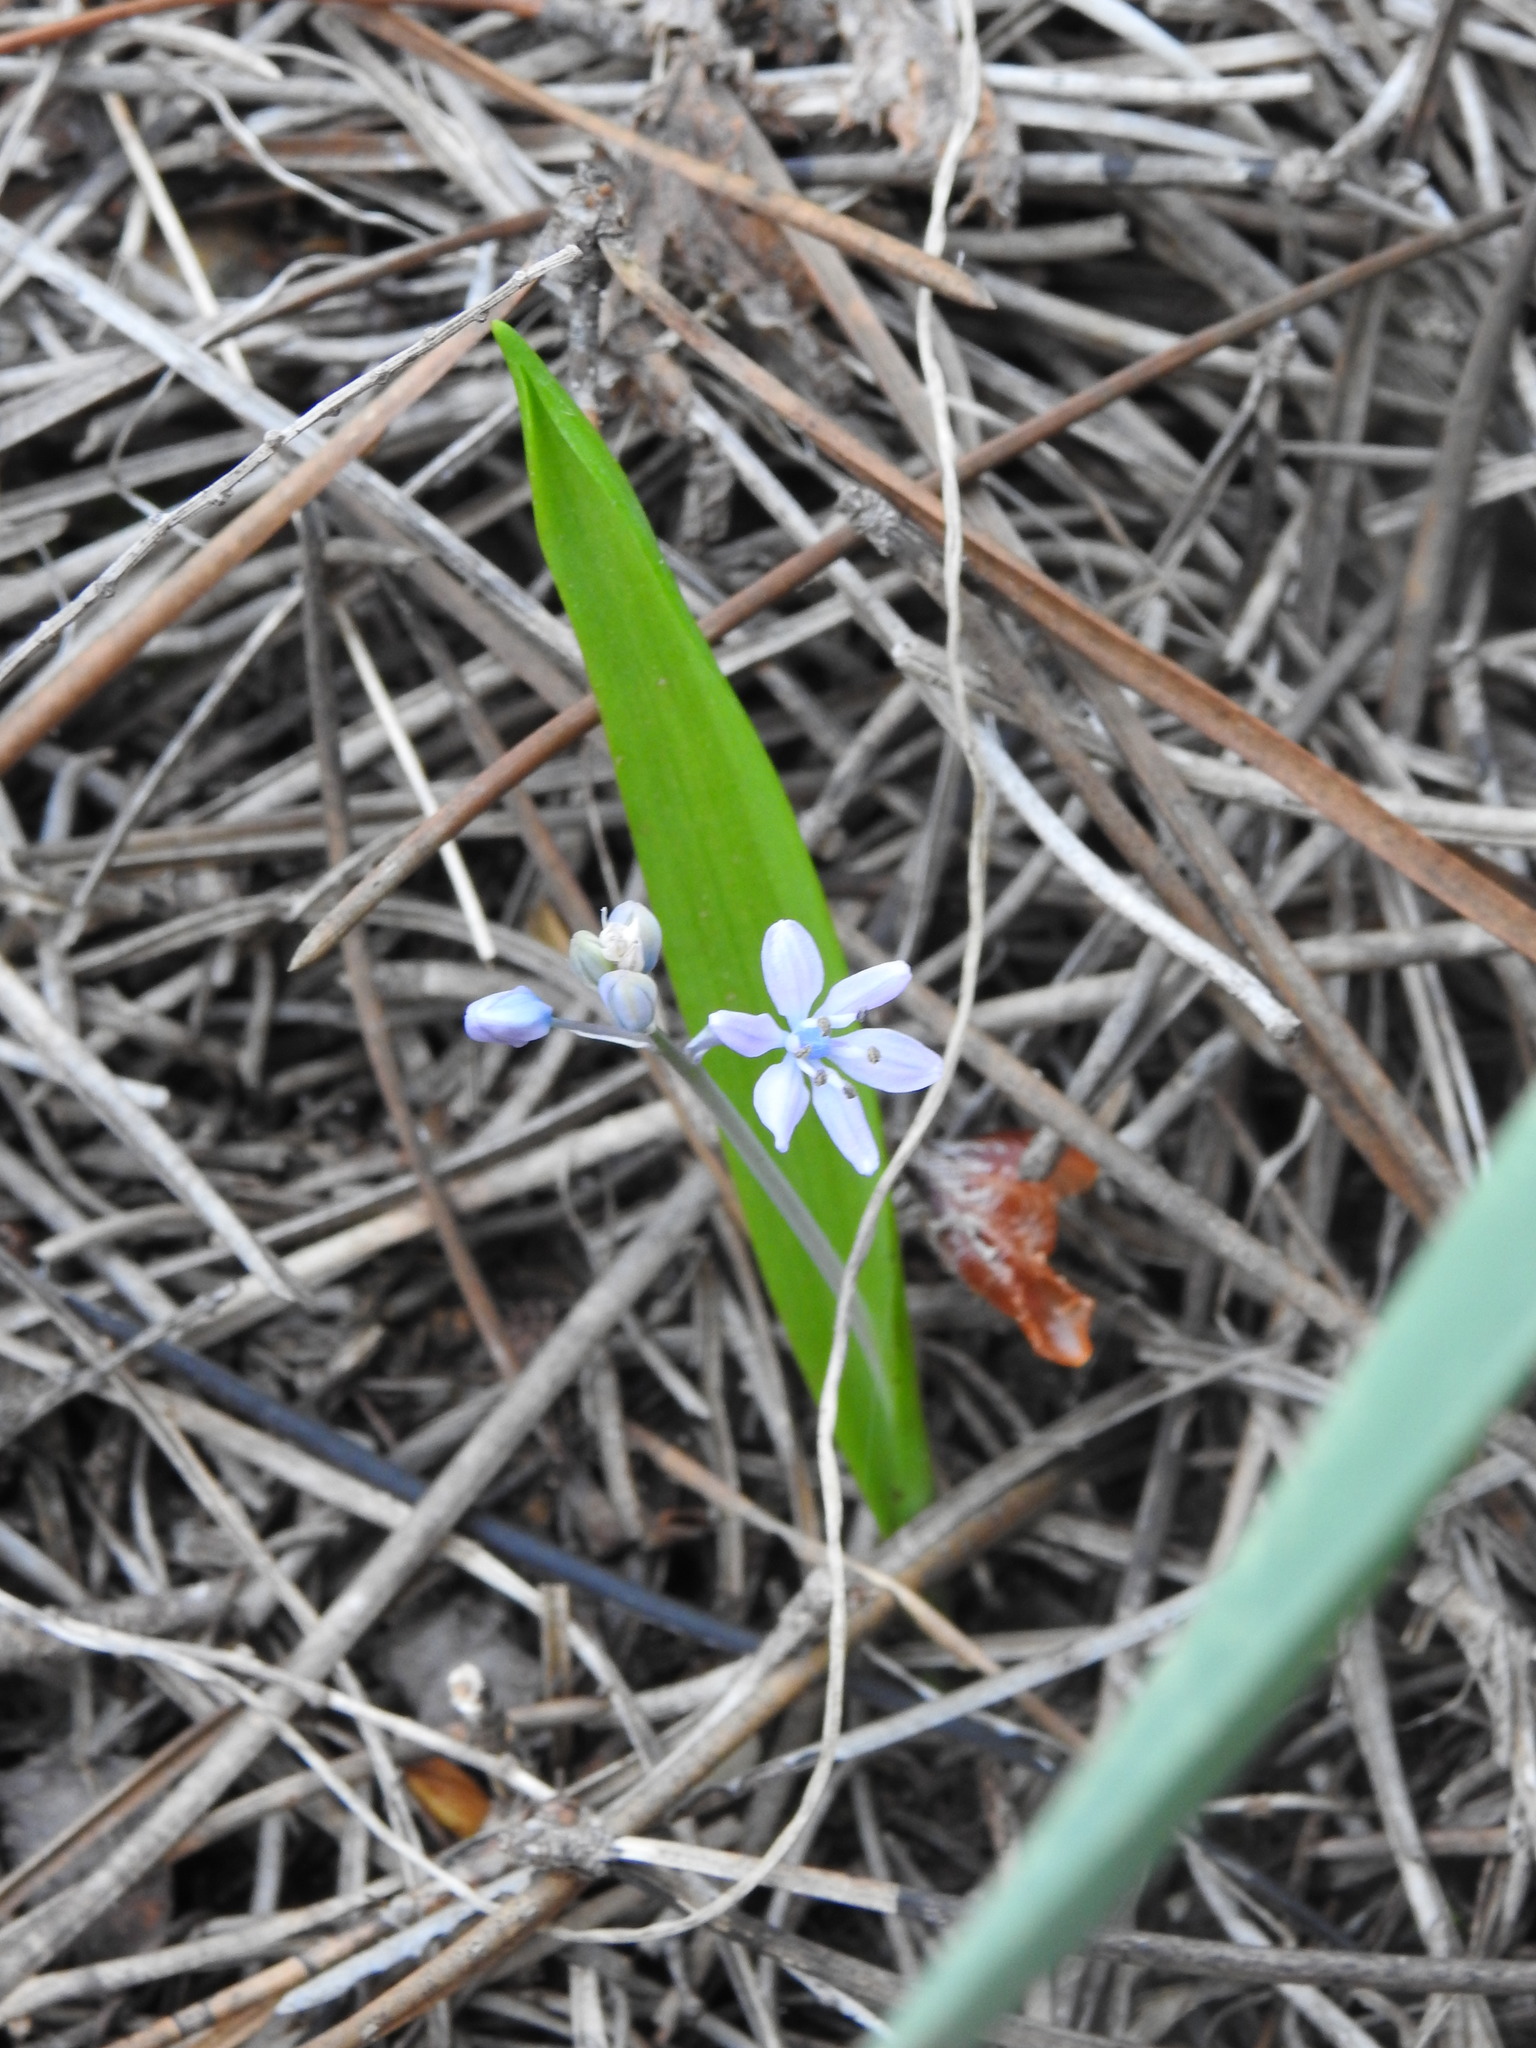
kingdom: Plantae
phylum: Tracheophyta
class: Liliopsida
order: Asparagales
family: Asparagaceae
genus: Scilla
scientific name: Scilla monophyllos
